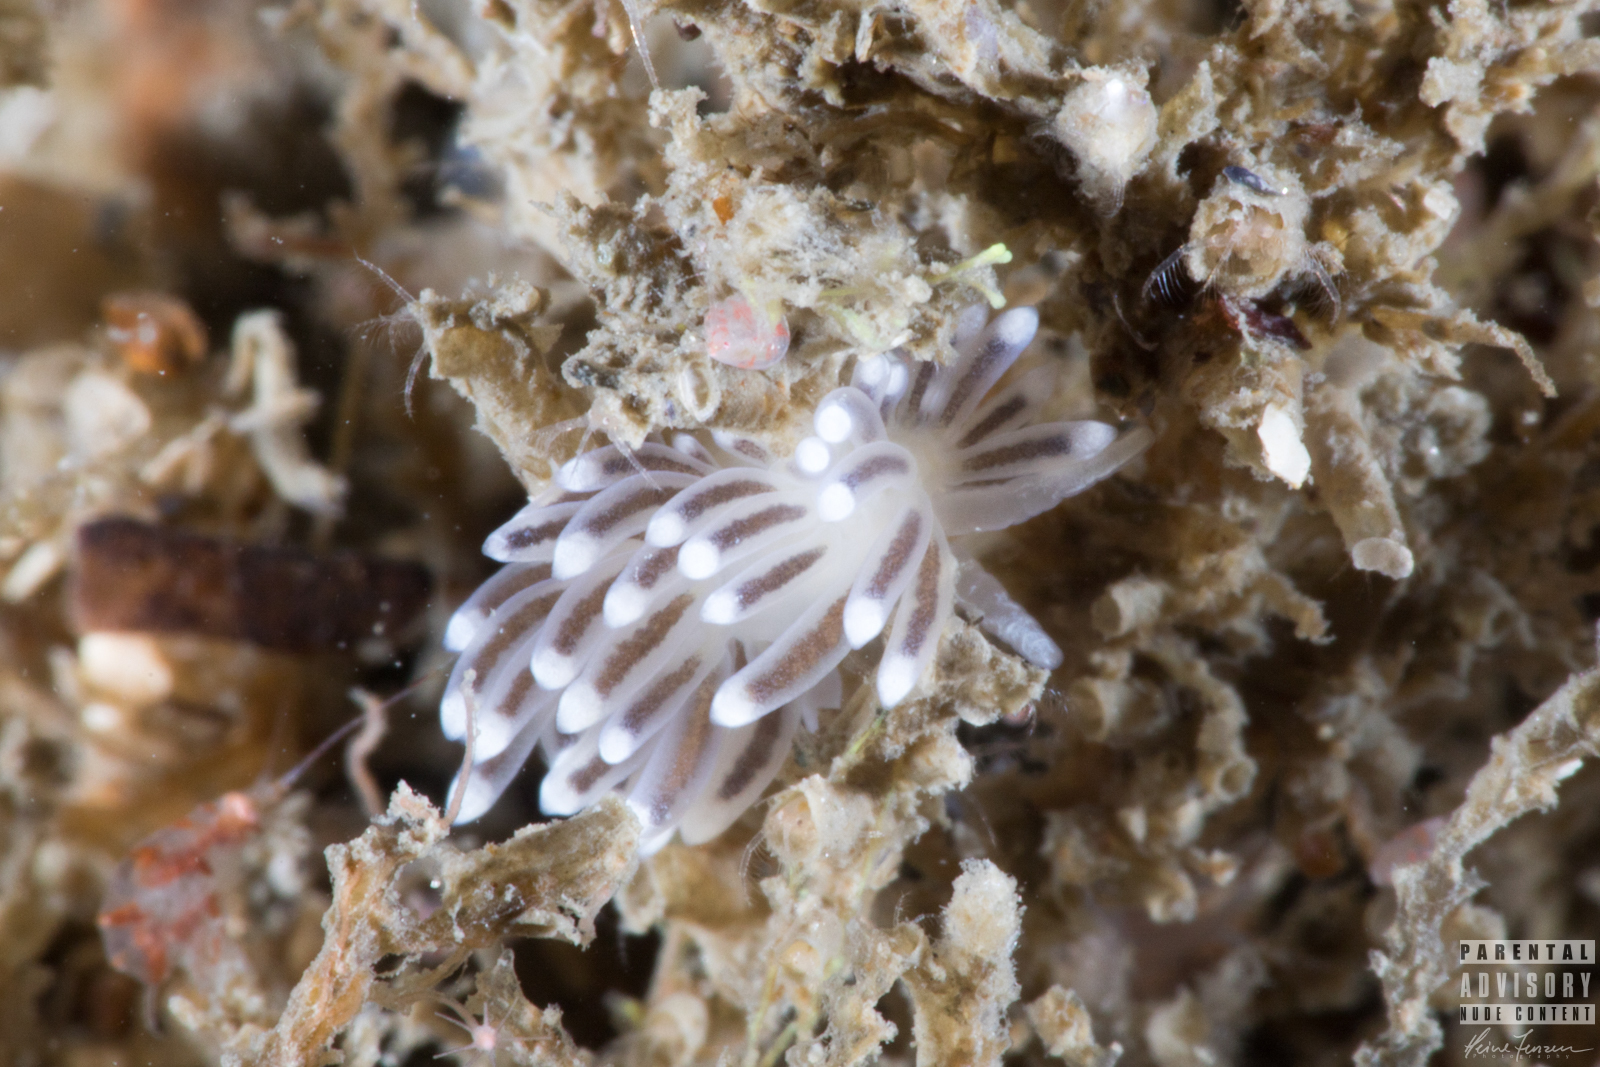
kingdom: Animalia
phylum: Mollusca
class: Gastropoda
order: Nudibranchia
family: Cuthonellidae
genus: Cuthonella
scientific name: Cuthonella concinna
